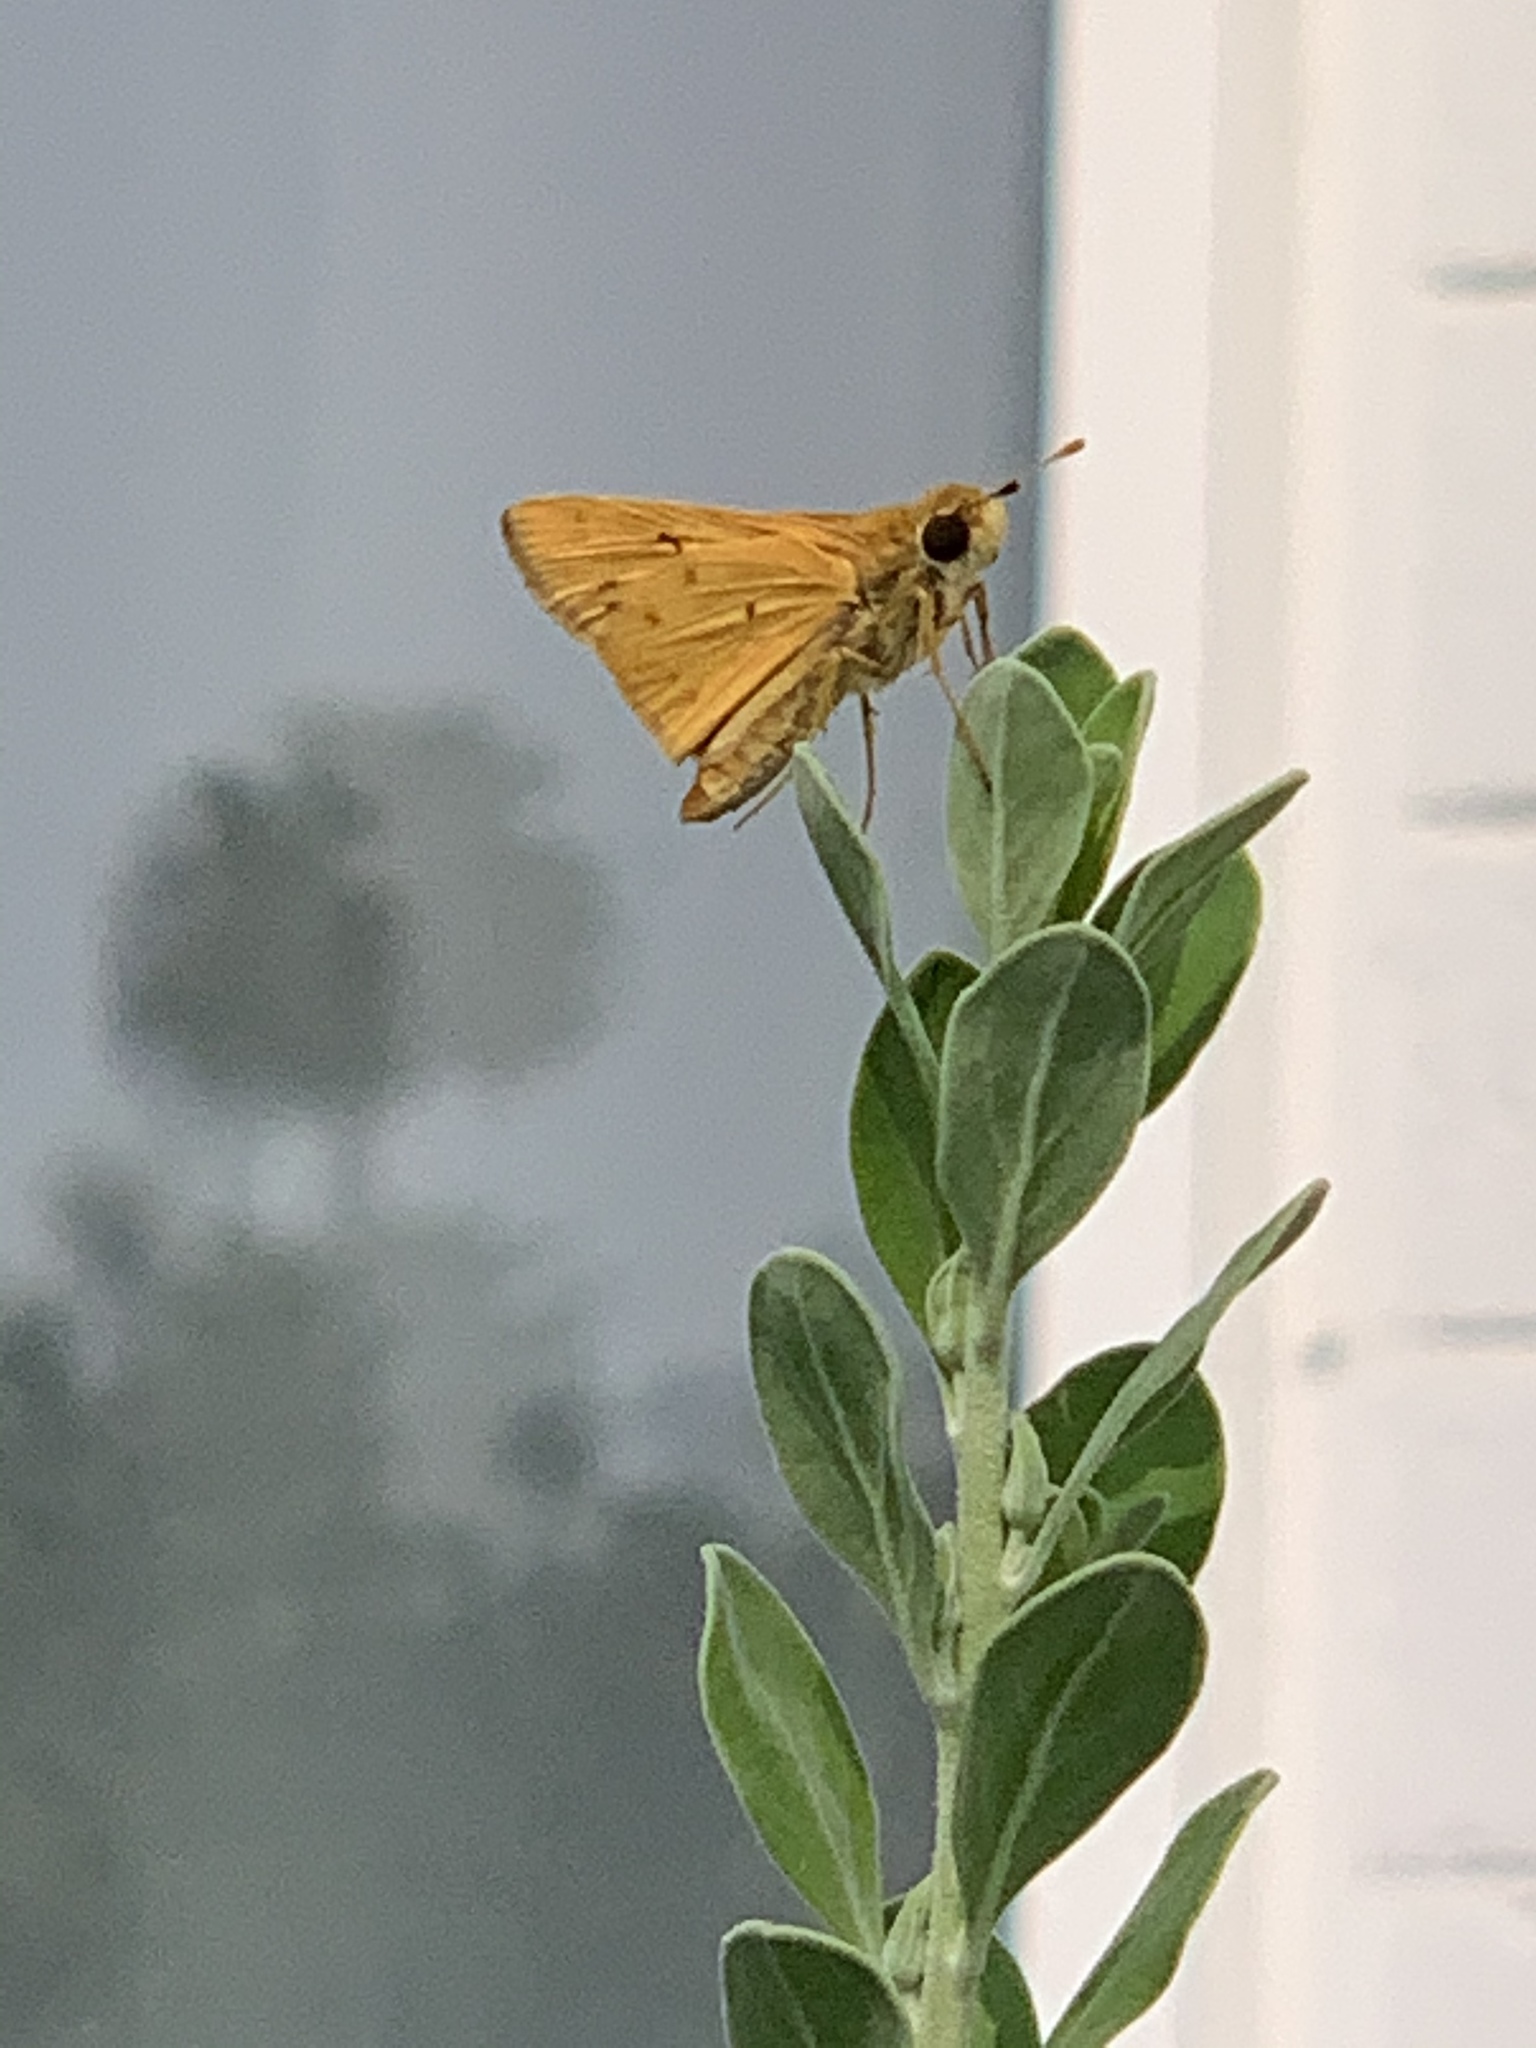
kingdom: Animalia
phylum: Arthropoda
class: Insecta
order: Lepidoptera
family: Hesperiidae
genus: Hylephila
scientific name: Hylephila phyleus
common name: Fiery skipper
